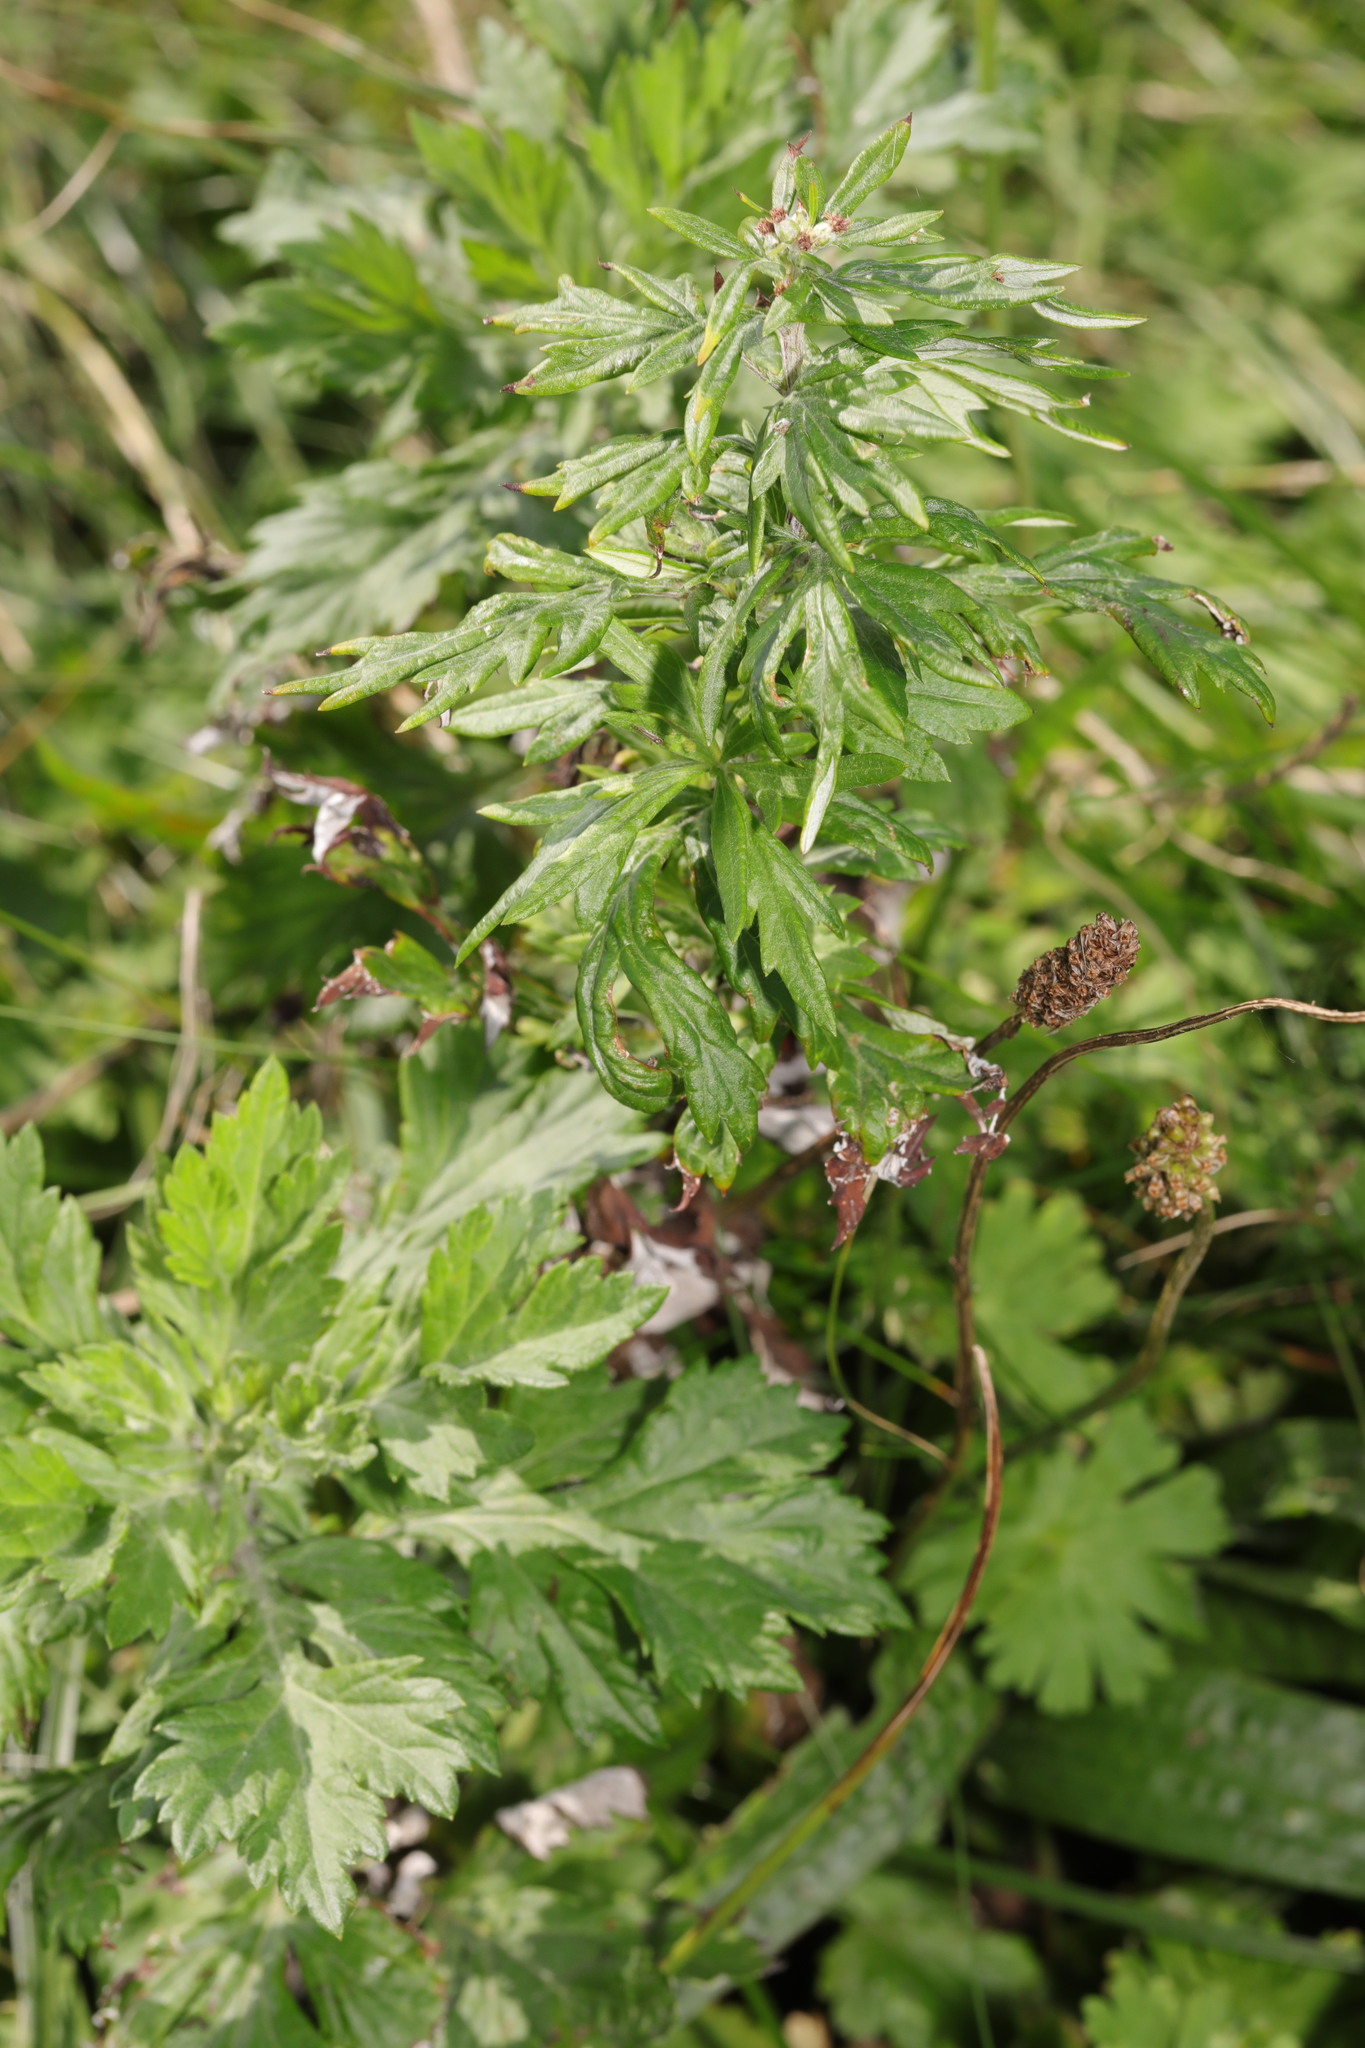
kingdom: Plantae
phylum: Tracheophyta
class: Magnoliopsida
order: Asterales
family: Asteraceae
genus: Artemisia
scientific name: Artemisia vulgaris
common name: Mugwort
